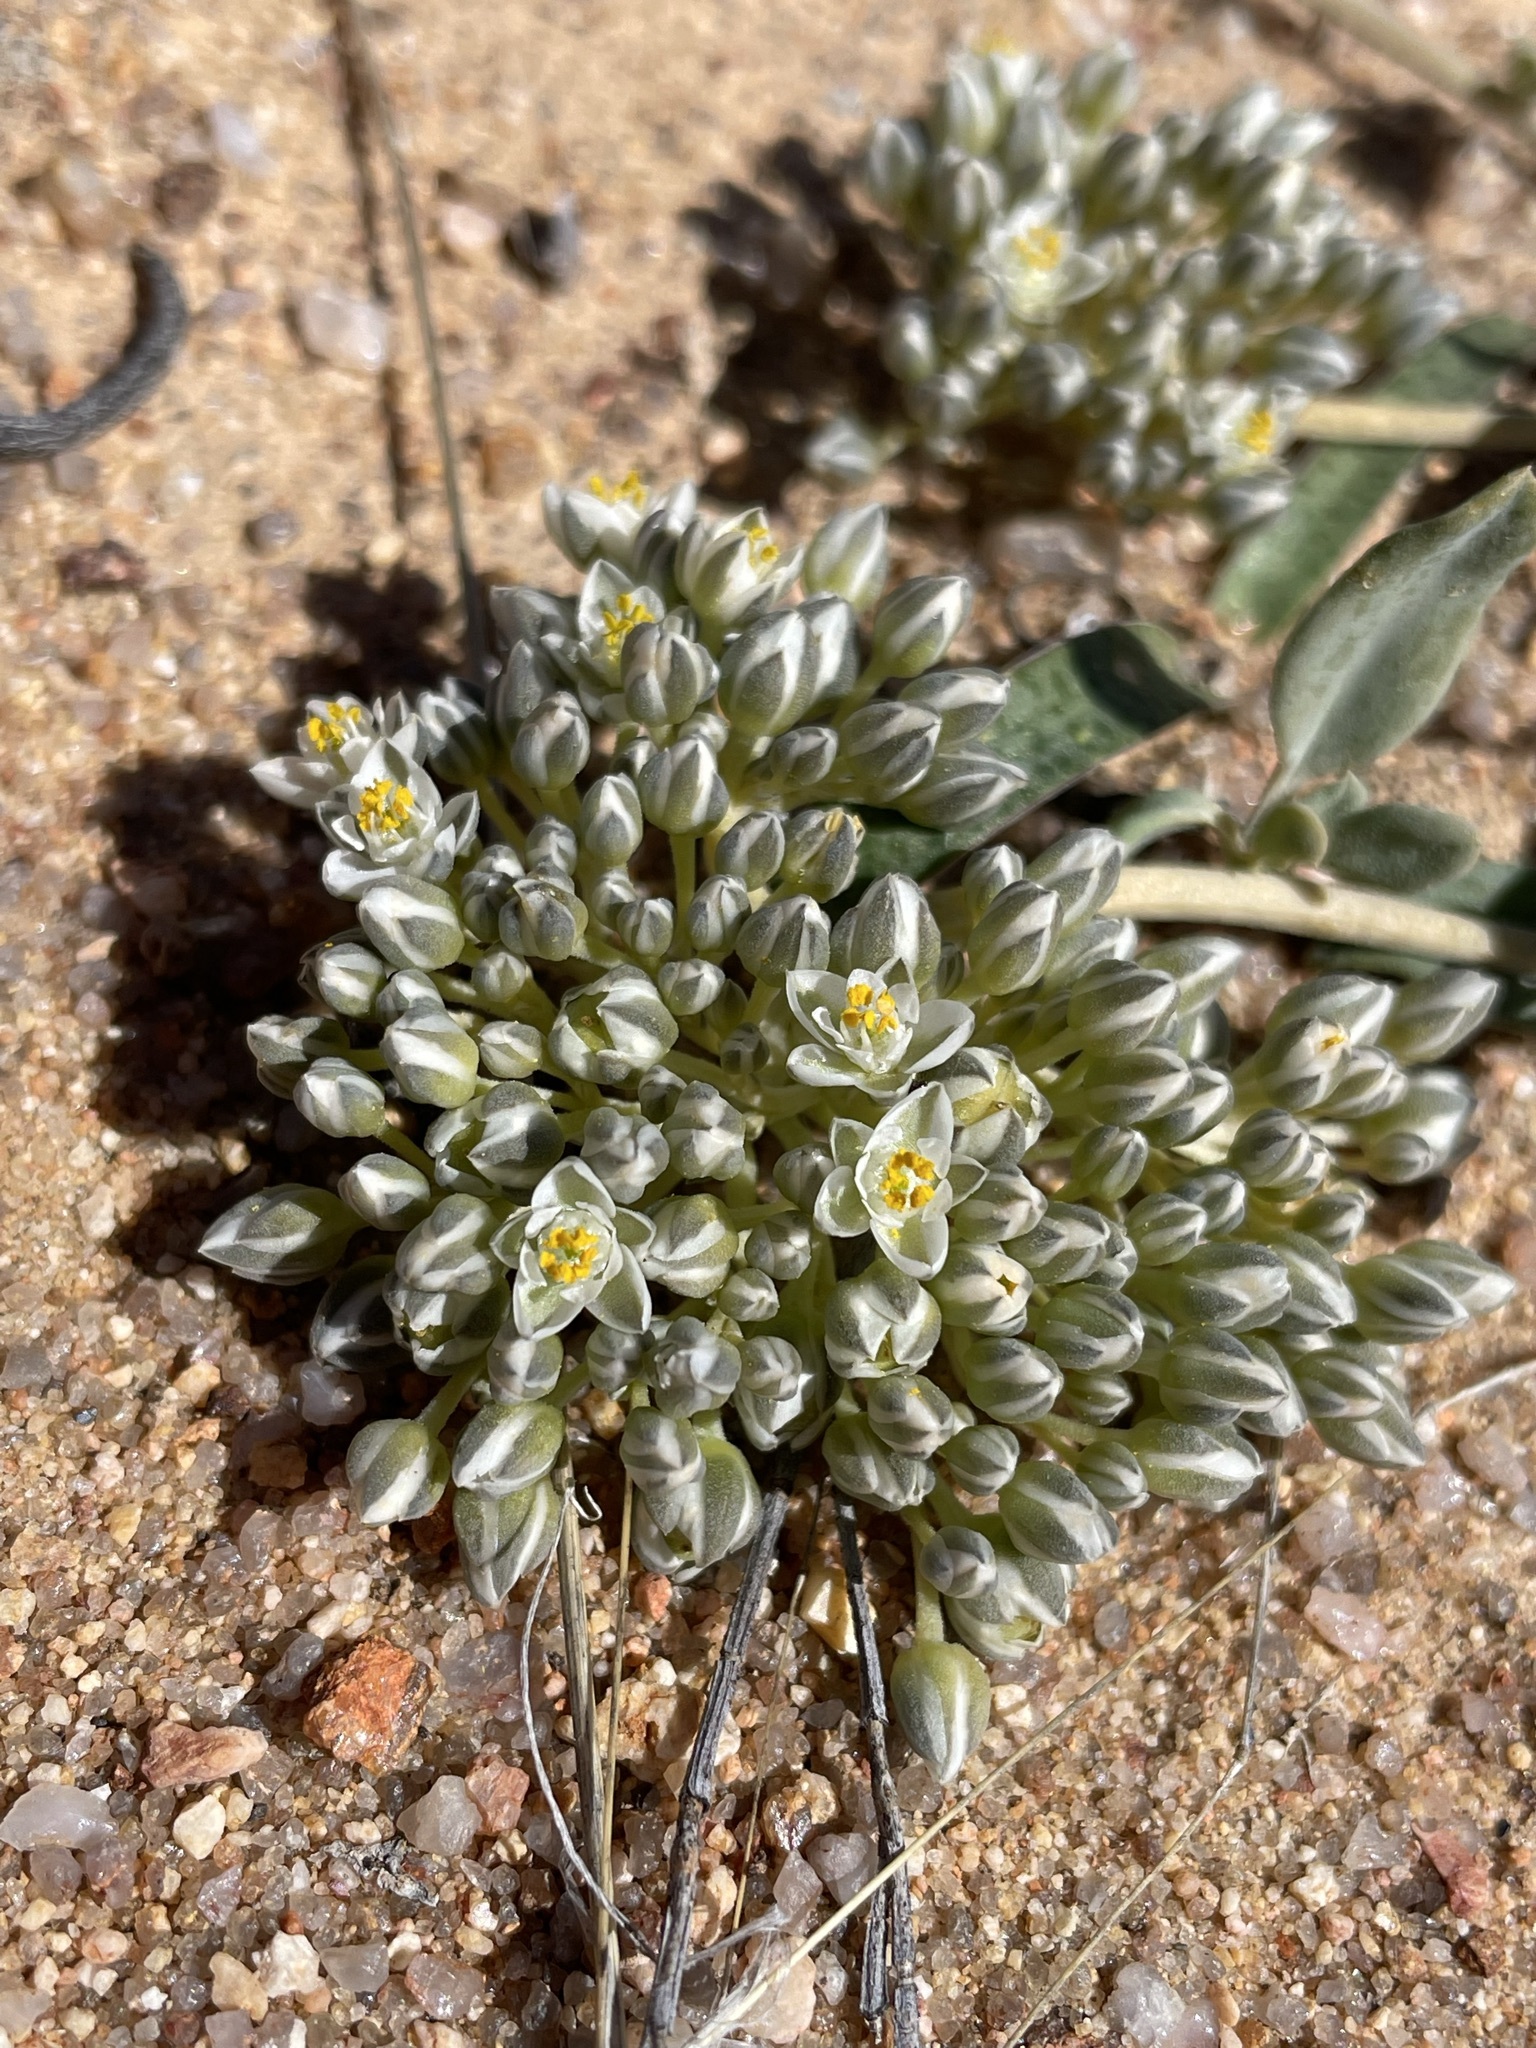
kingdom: Plantae
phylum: Tracheophyta
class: Magnoliopsida
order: Caryophyllales
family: Limeaceae
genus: Limeum
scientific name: Limeum africanum
